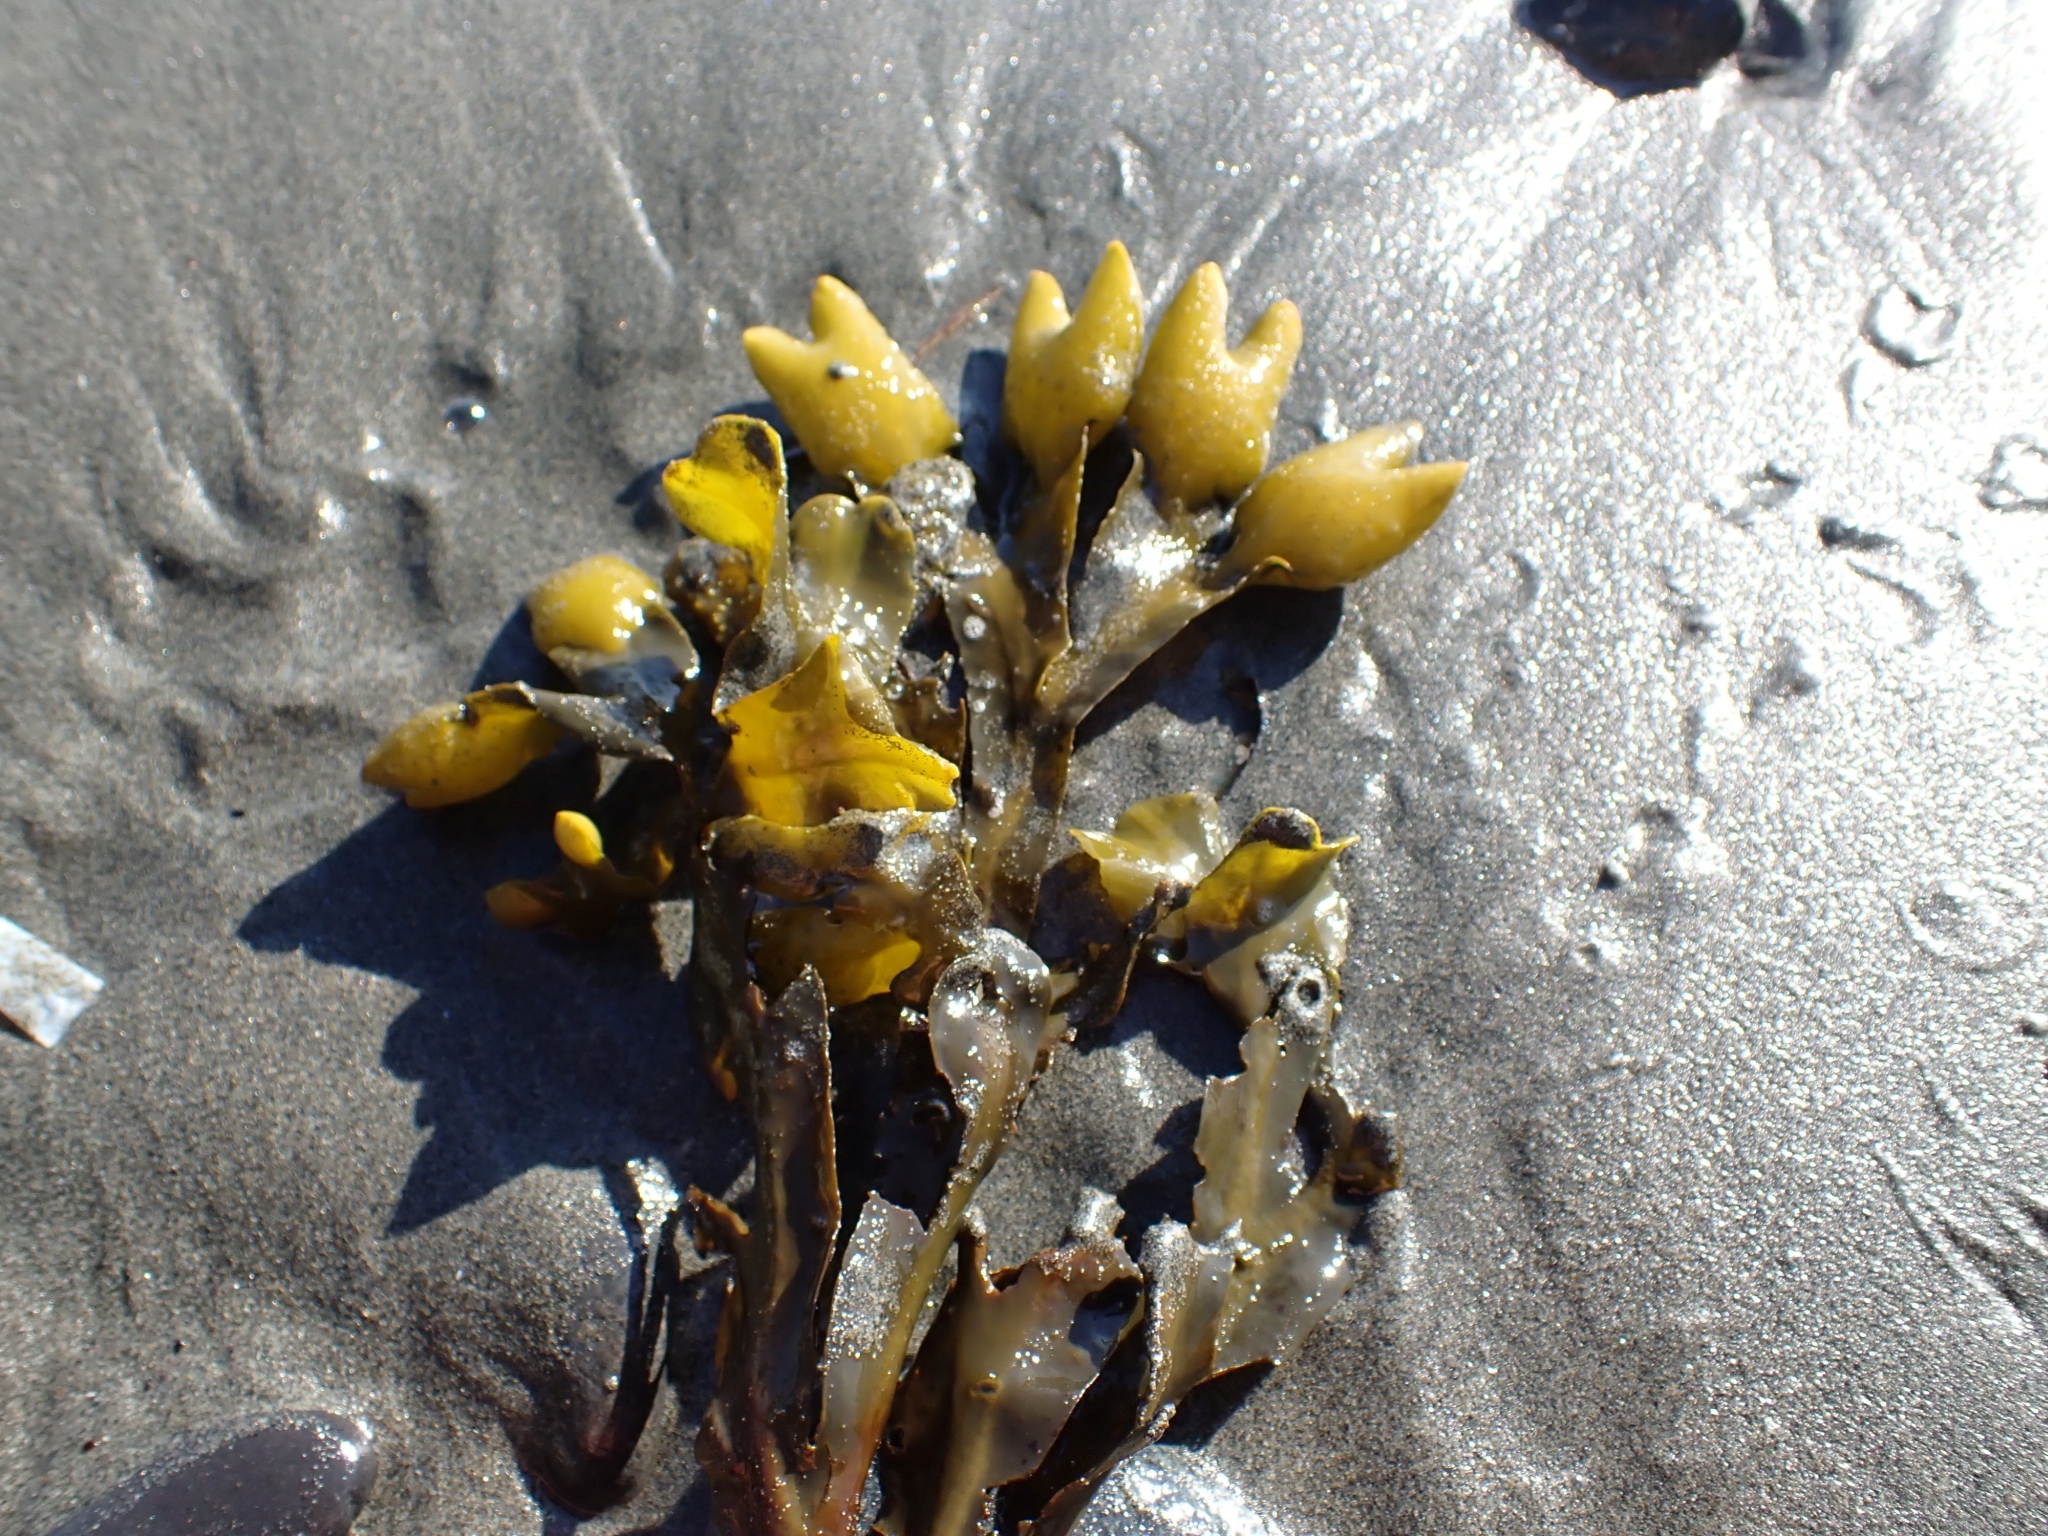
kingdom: Chromista
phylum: Ochrophyta
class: Phaeophyceae
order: Fucales
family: Fucaceae
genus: Fucus
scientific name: Fucus distichus
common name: Rockweed
